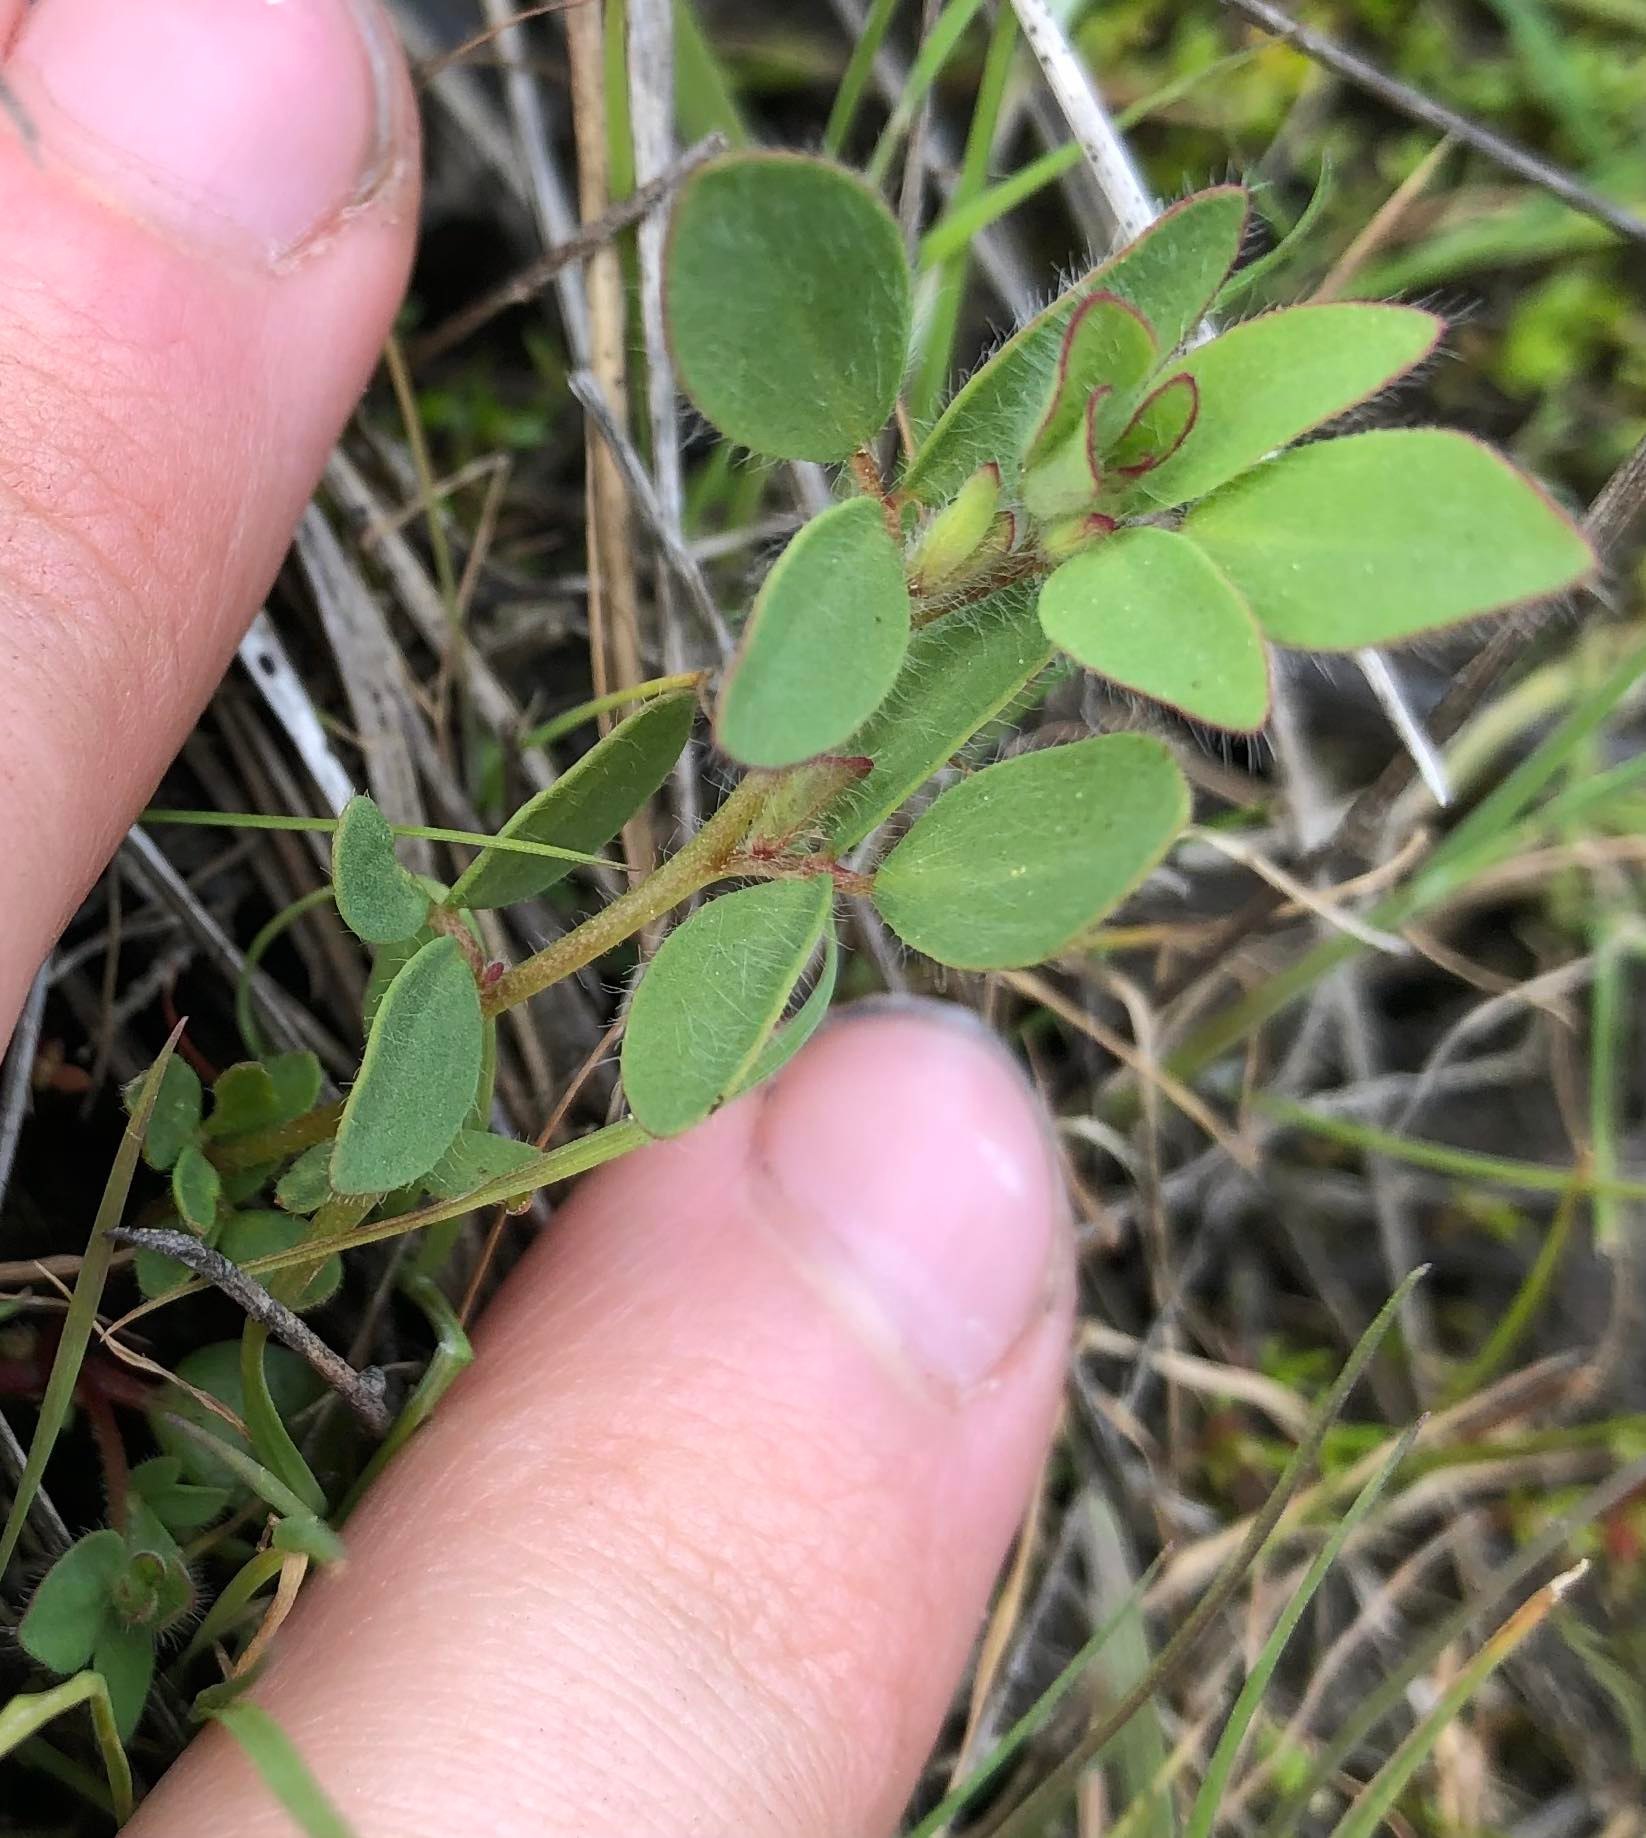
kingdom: Plantae
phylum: Tracheophyta
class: Magnoliopsida
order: Fabales
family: Fabaceae
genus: Acmispon
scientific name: Acmispon americanus
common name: American bird's-foot trefoil
